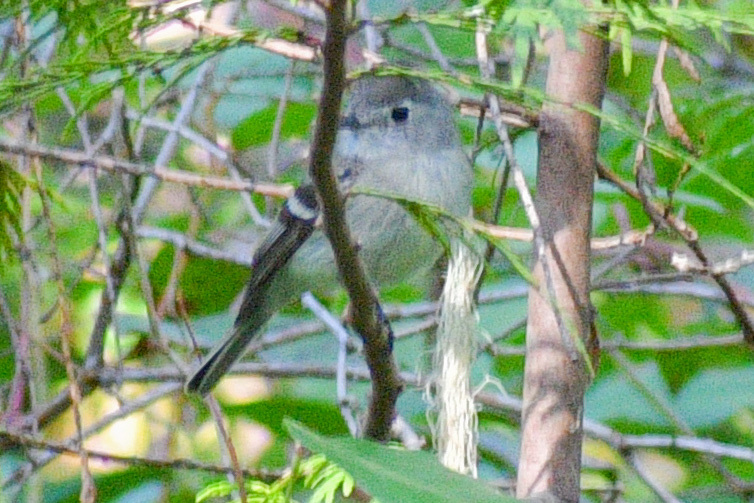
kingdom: Animalia
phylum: Chordata
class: Aves
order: Passeriformes
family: Tyrannidae
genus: Empidonax
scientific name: Empidonax hammondii
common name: Hammond's flycatcher
